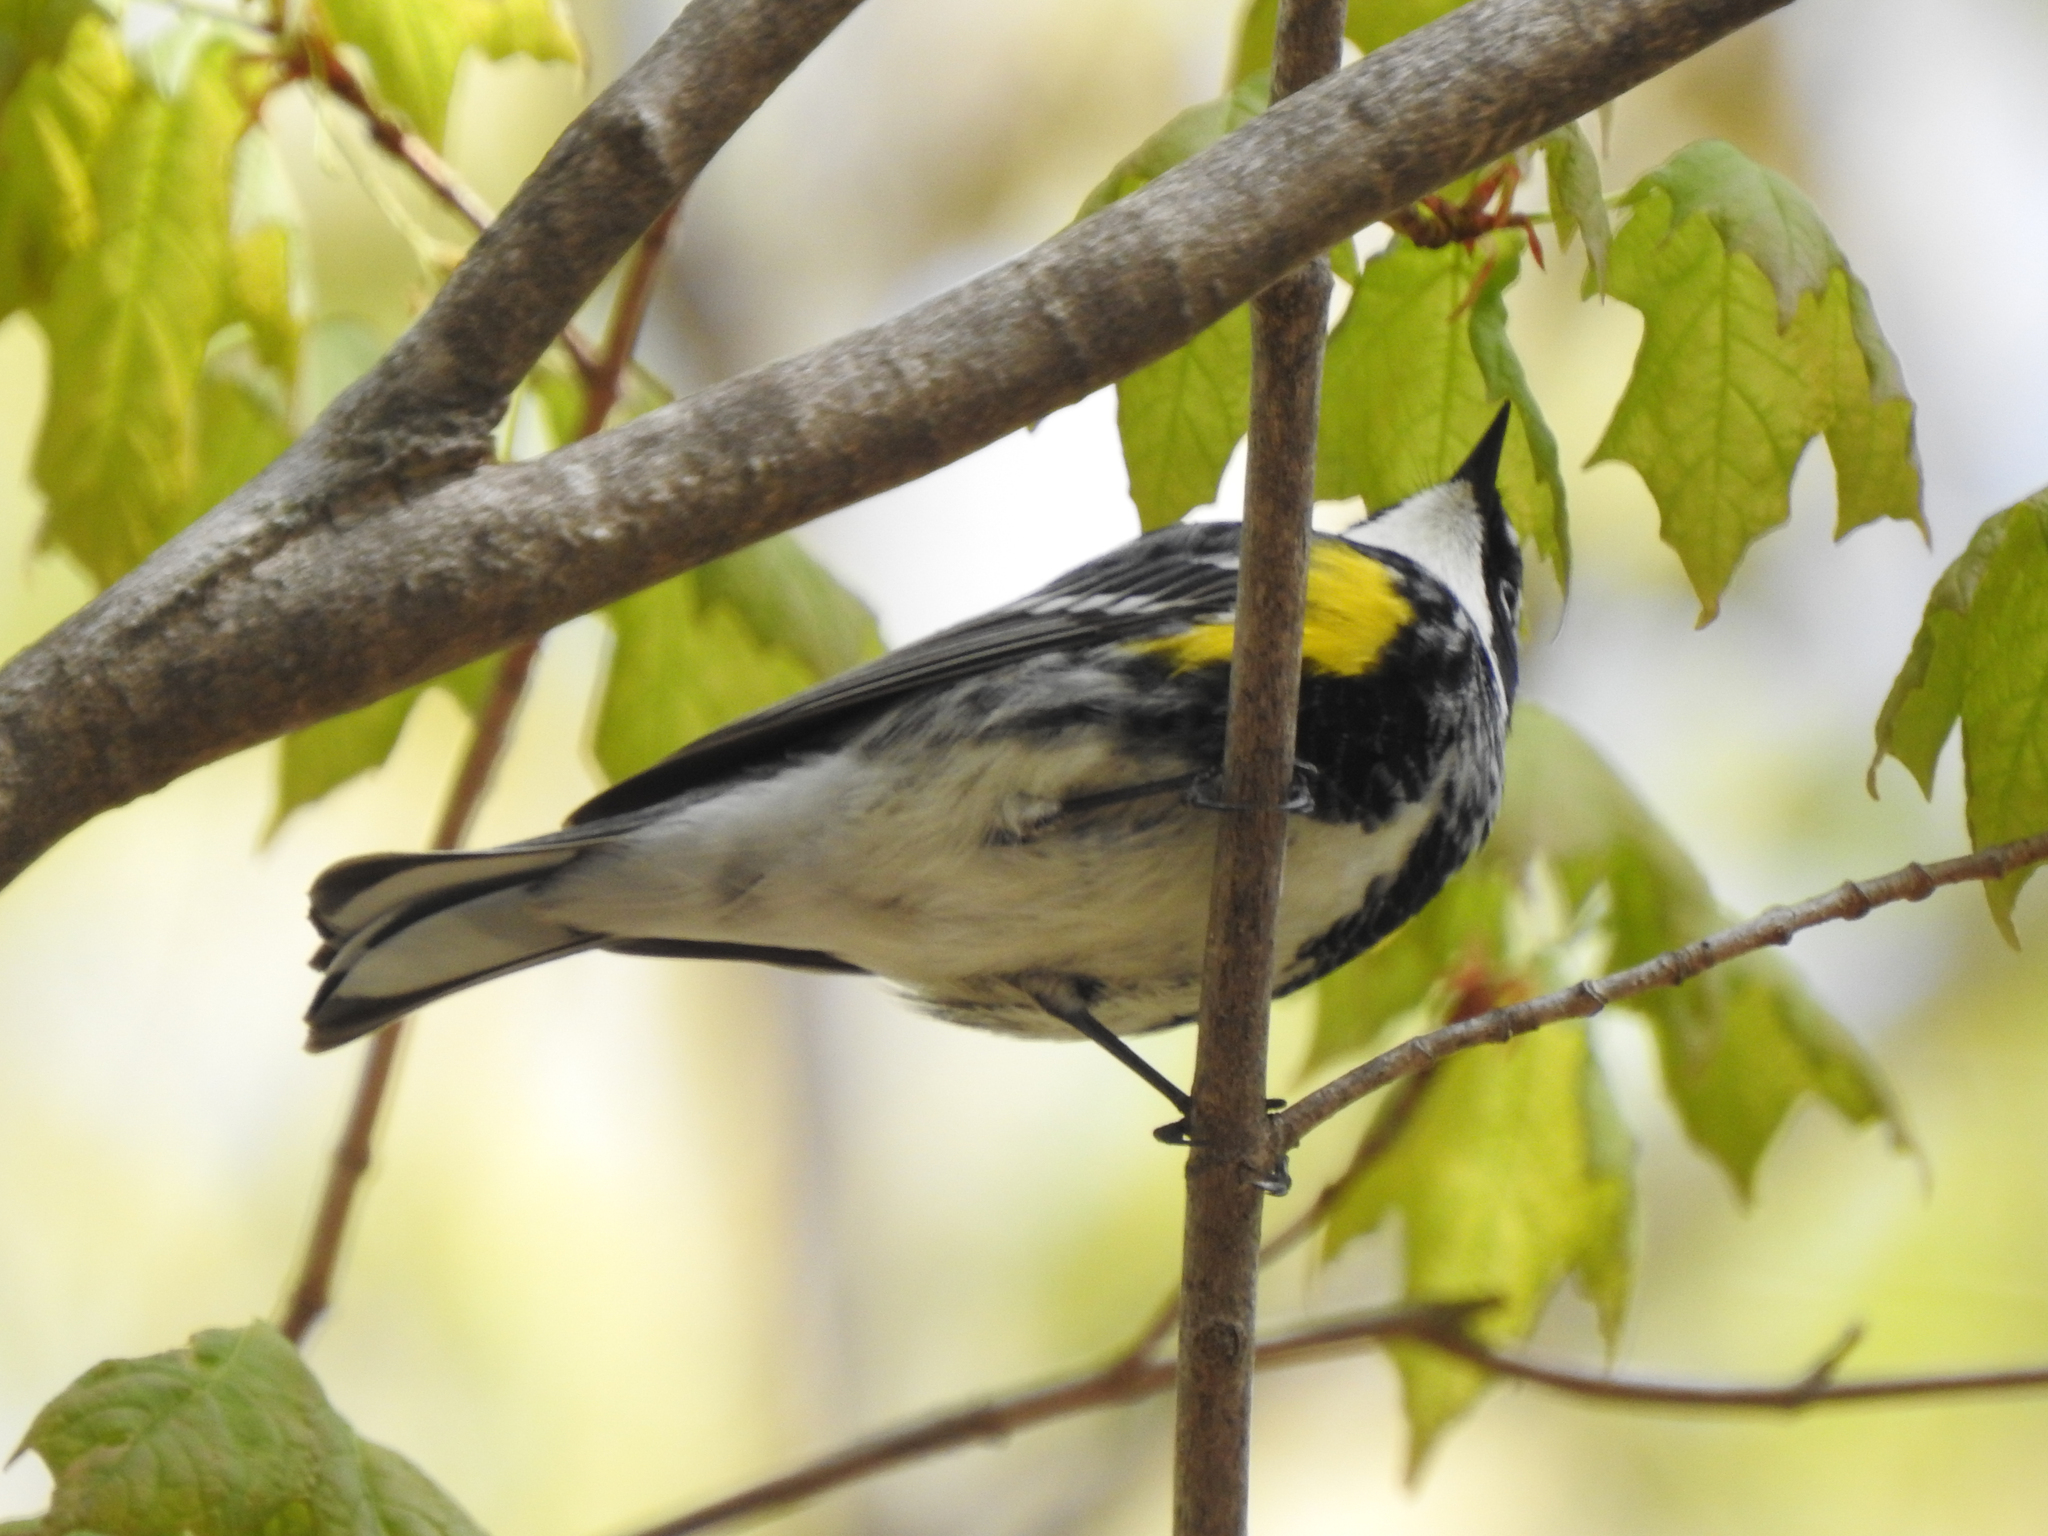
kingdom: Animalia
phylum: Chordata
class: Aves
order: Passeriformes
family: Parulidae
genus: Setophaga
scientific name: Setophaga coronata
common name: Myrtle warbler
